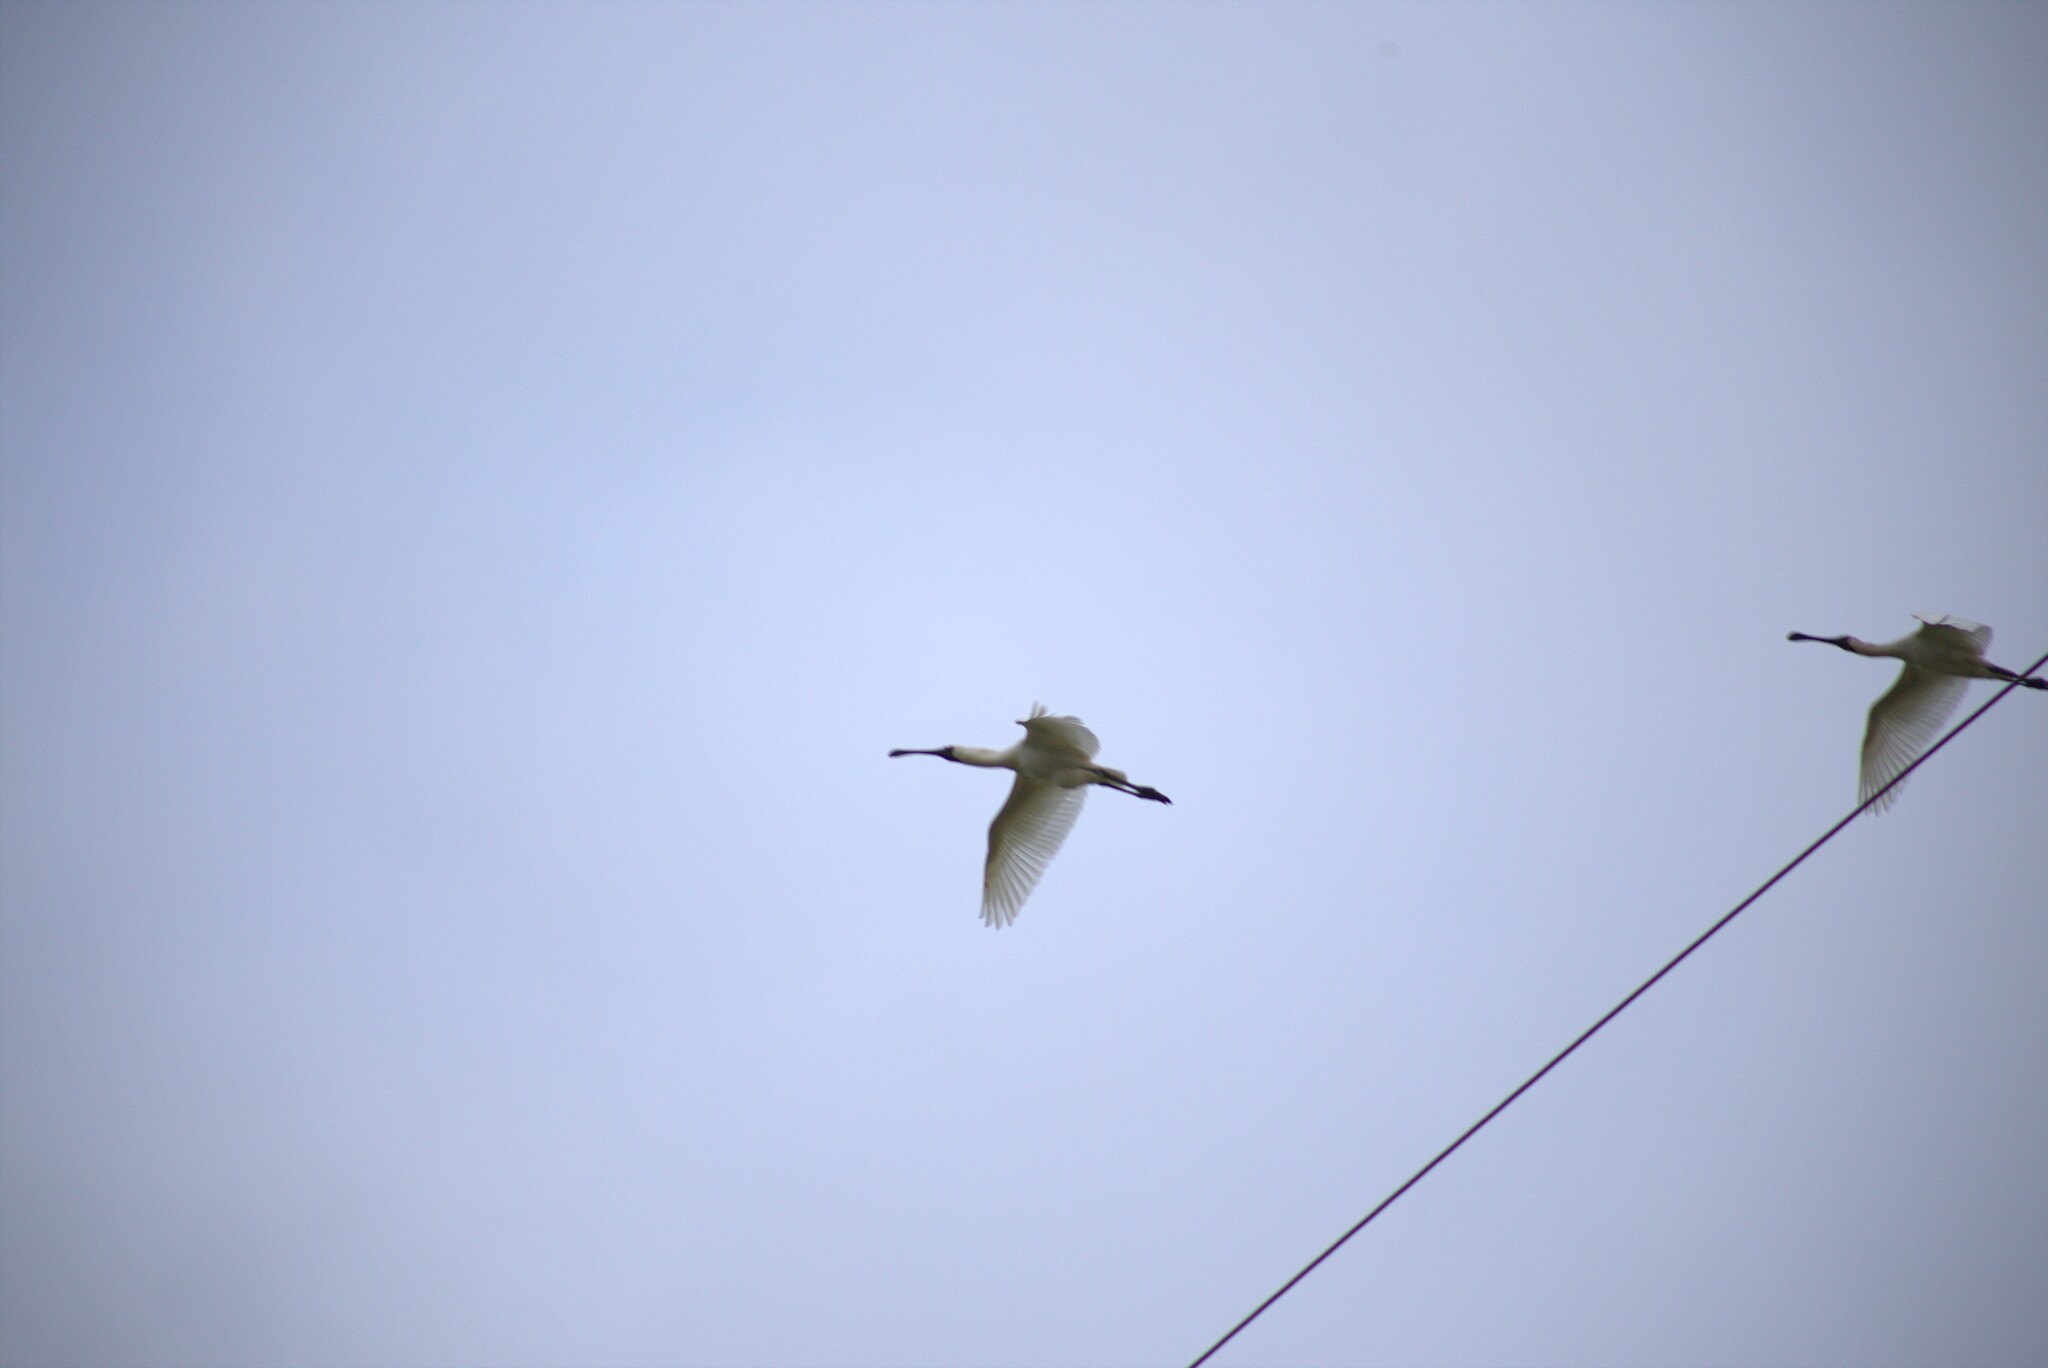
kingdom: Animalia
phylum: Chordata
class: Aves
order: Pelecaniformes
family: Threskiornithidae
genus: Platalea
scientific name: Platalea regia
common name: Royal spoonbill
